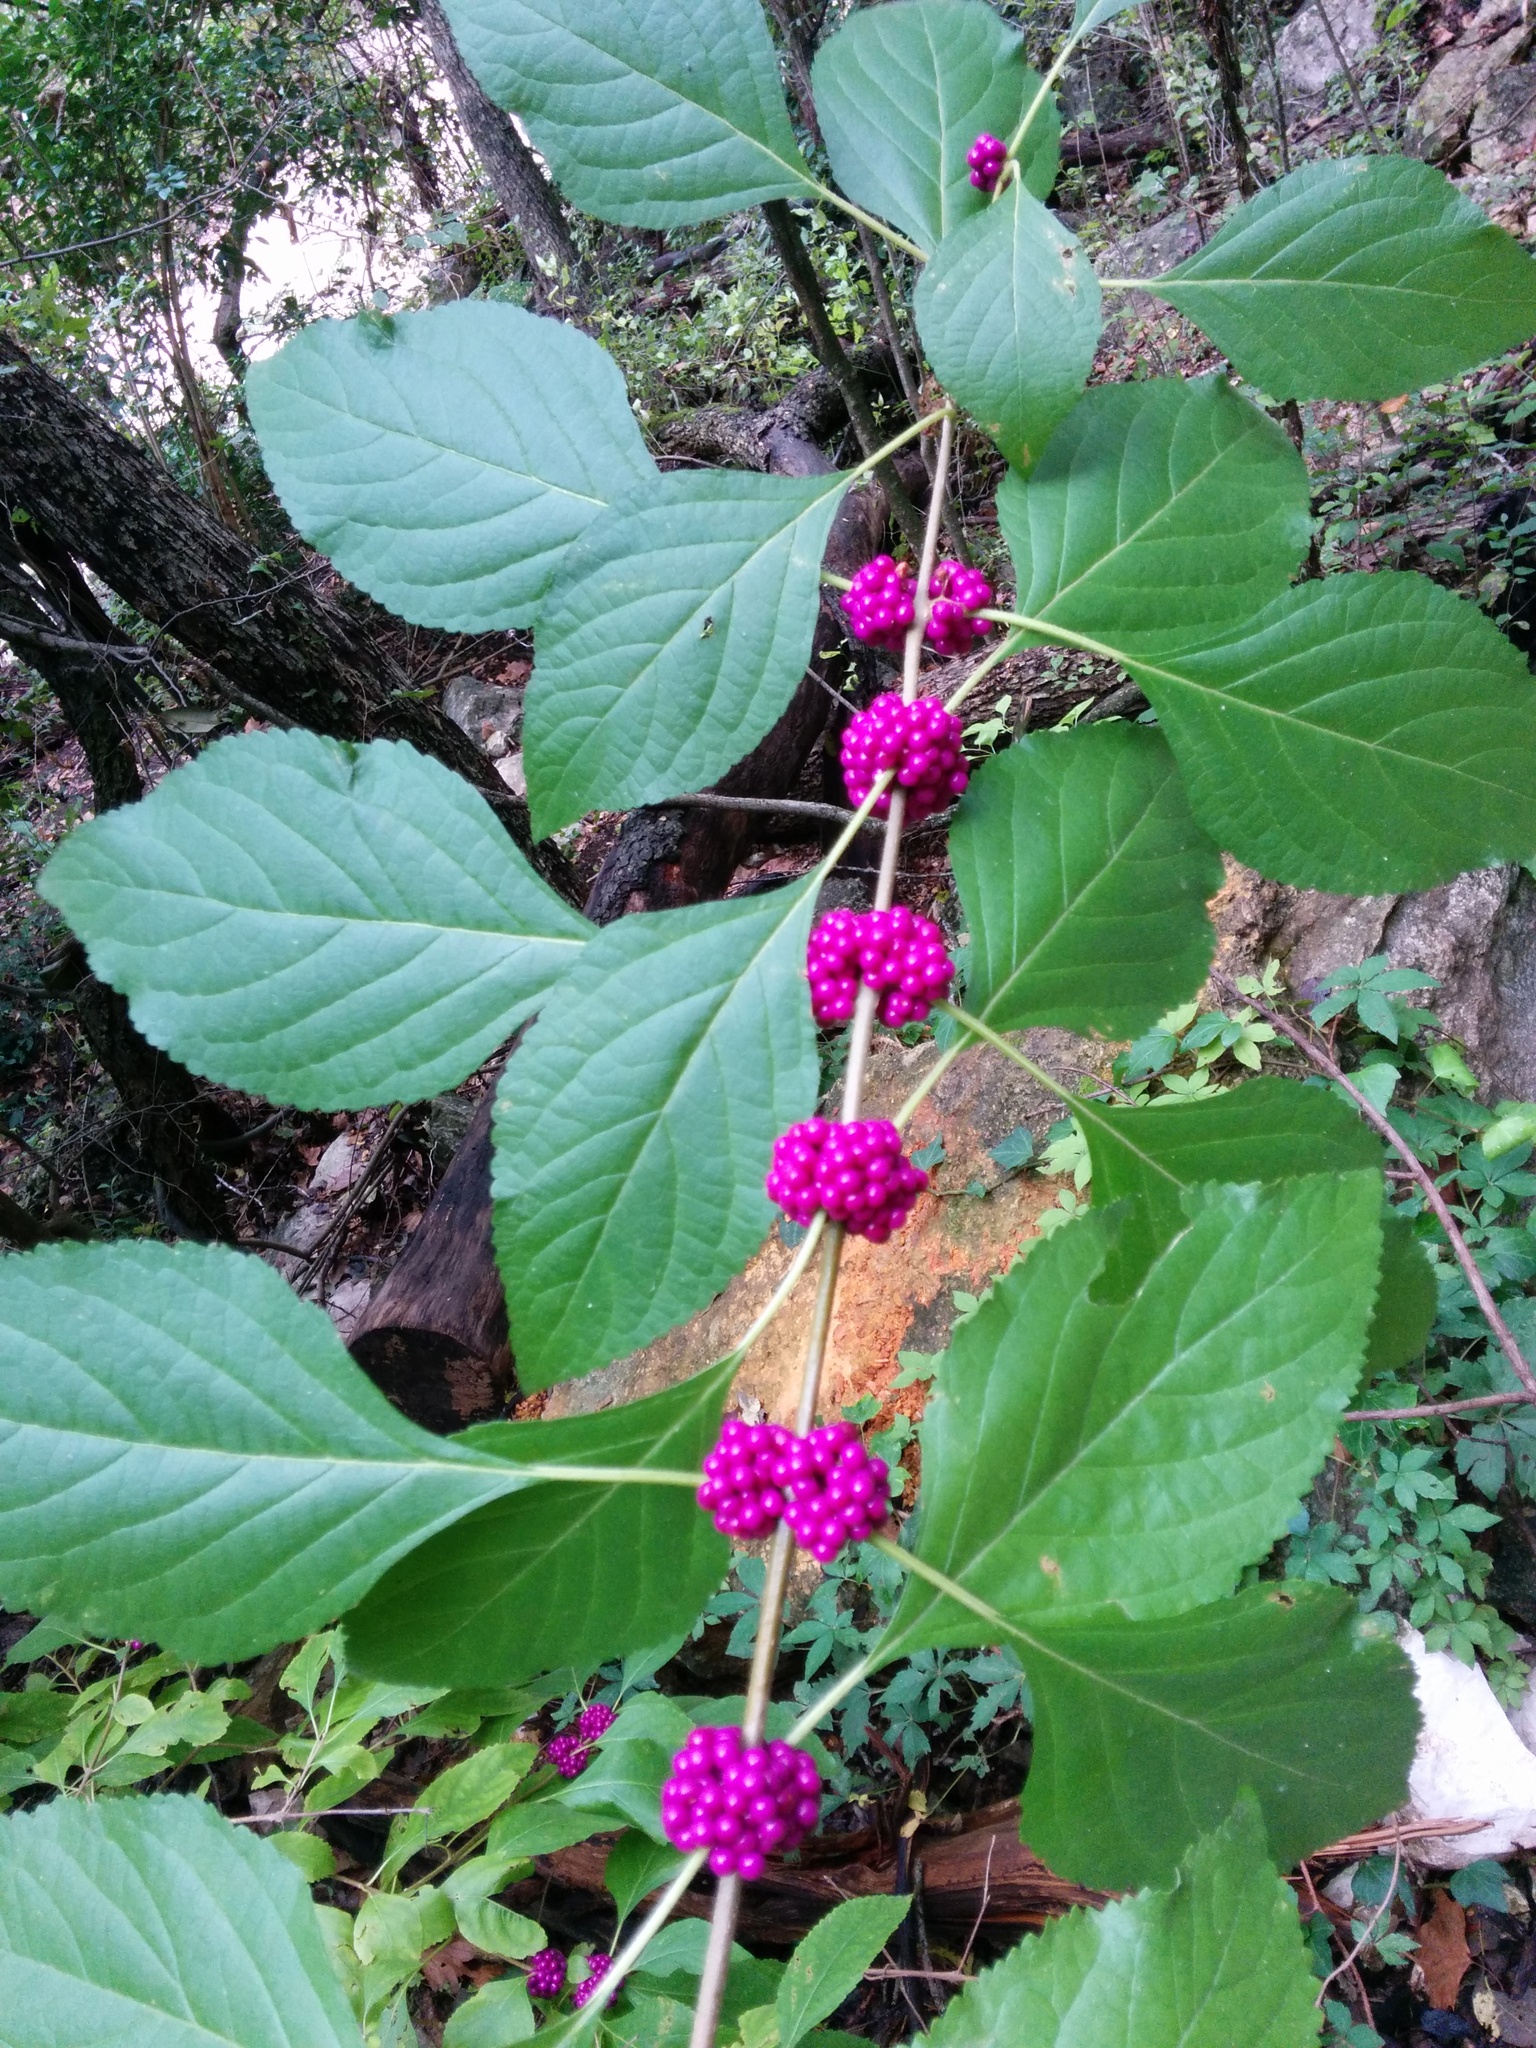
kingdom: Plantae
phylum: Tracheophyta
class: Magnoliopsida
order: Lamiales
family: Lamiaceae
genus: Callicarpa
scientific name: Callicarpa americana
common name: American beautyberry
